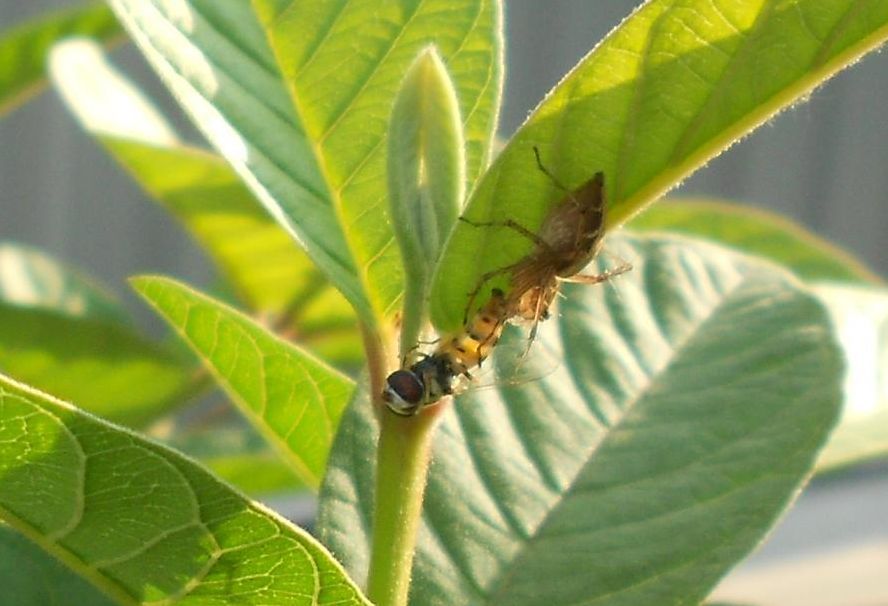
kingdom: Animalia
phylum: Arthropoda
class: Arachnida
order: Araneae
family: Oxyopidae
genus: Oxyopes
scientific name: Oxyopes sertatus
